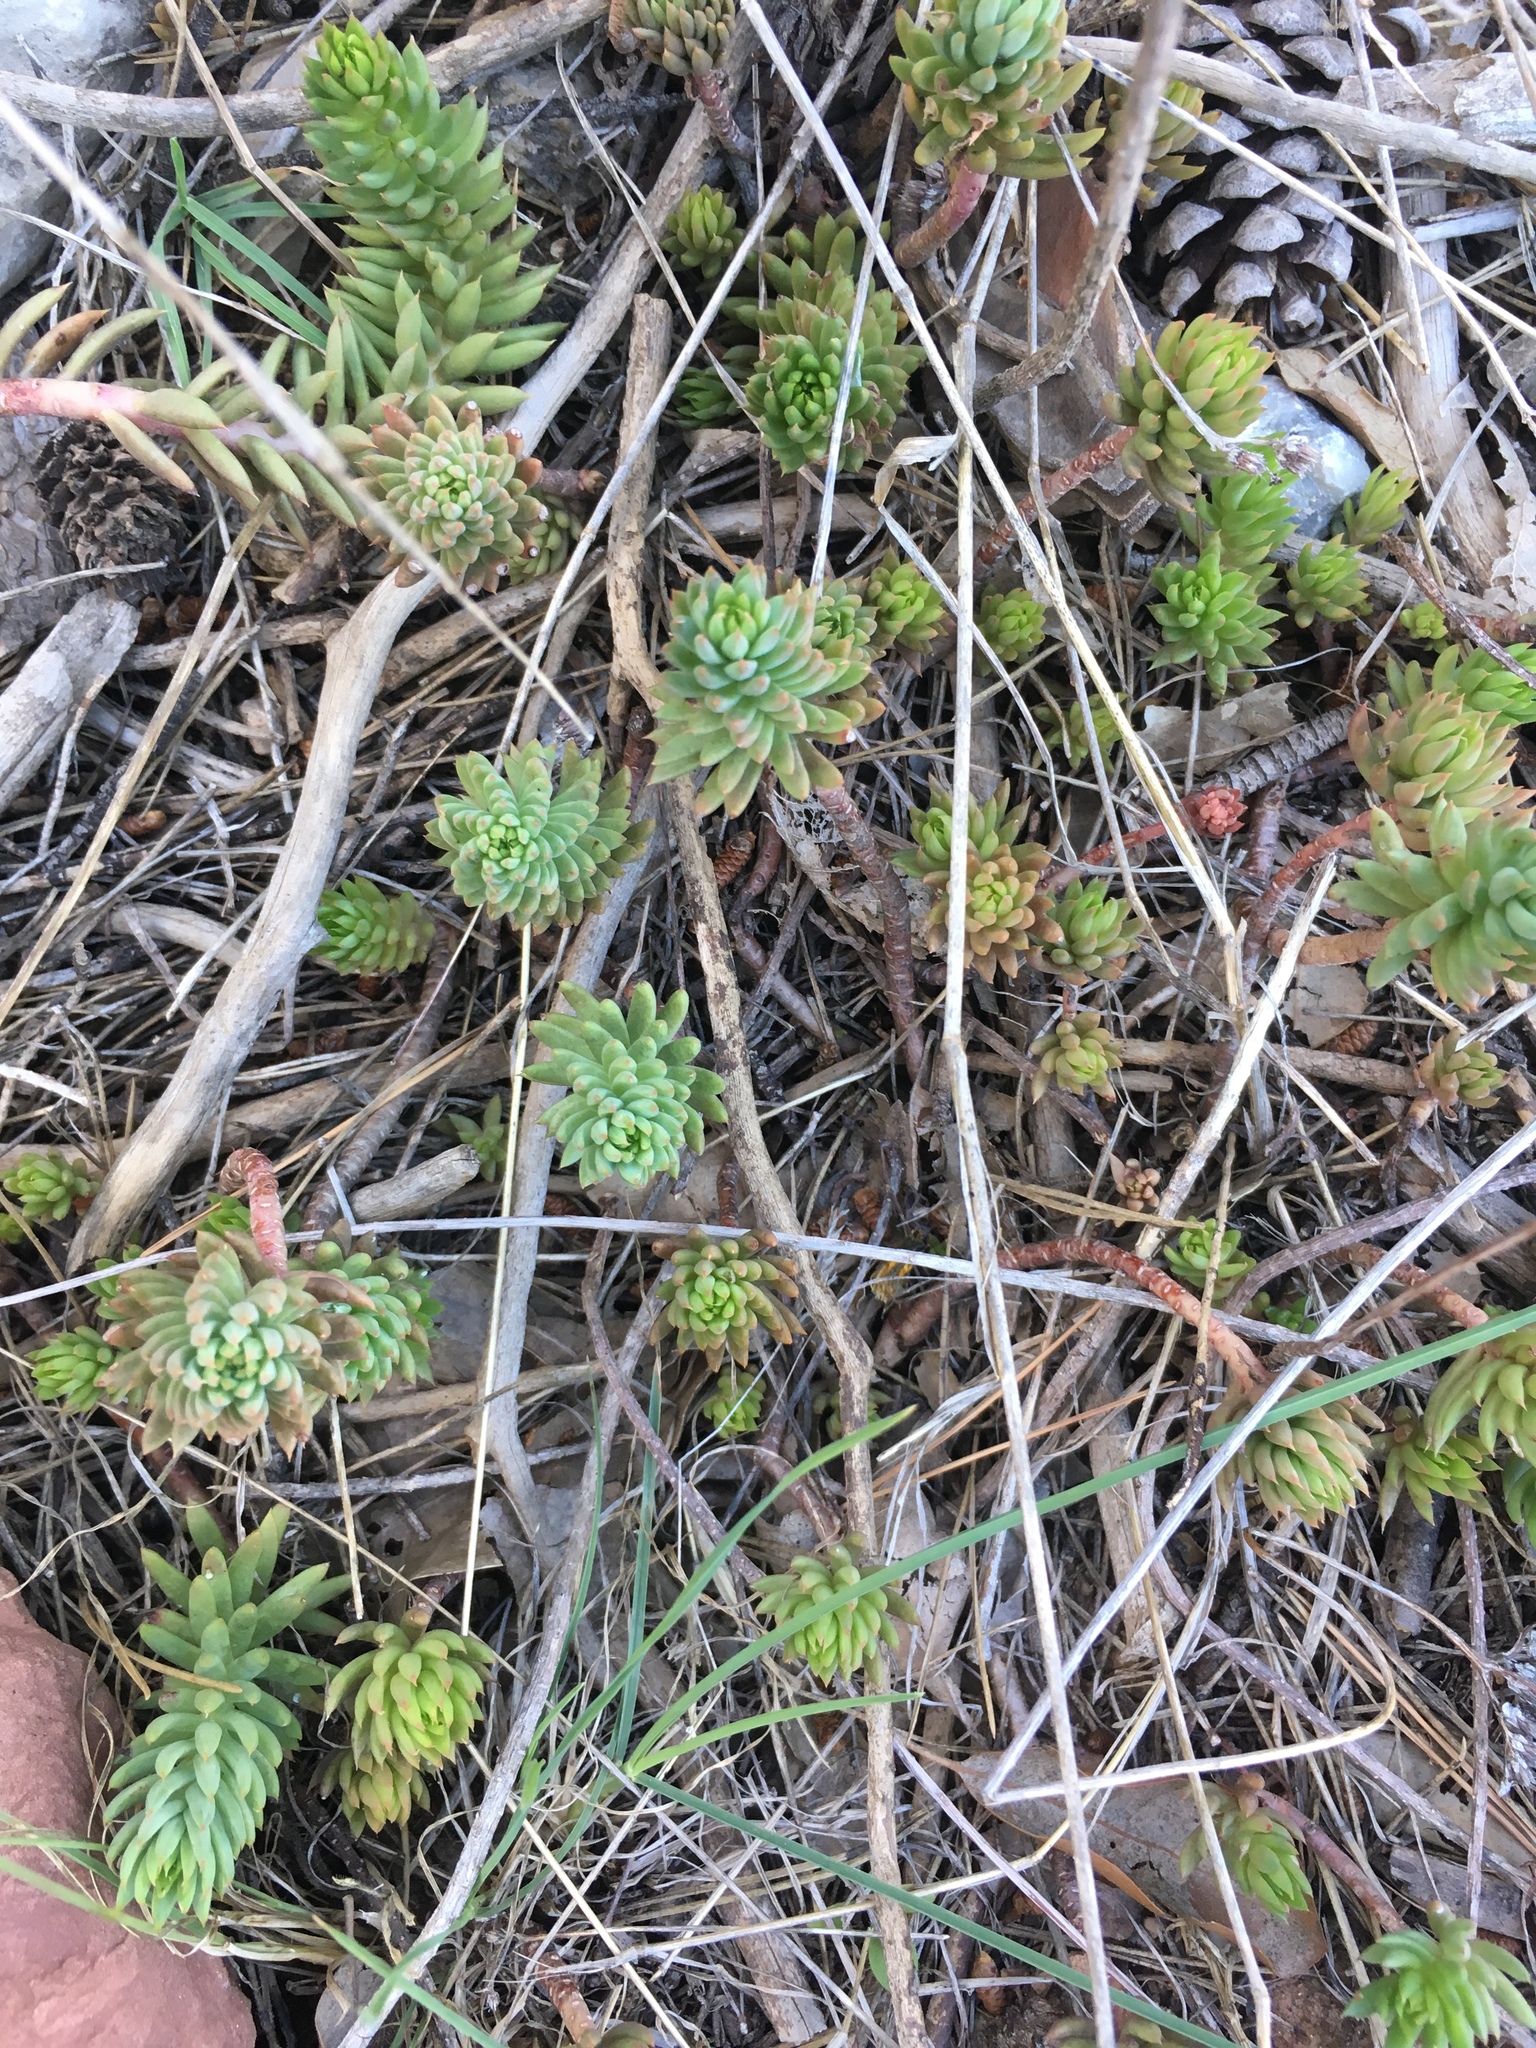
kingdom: Plantae
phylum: Tracheophyta
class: Magnoliopsida
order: Saxifragales
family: Crassulaceae
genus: Petrosedum
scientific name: Petrosedum sediforme
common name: Pale stonecrop
